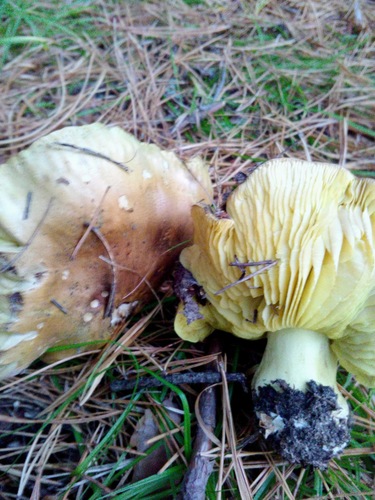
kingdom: Fungi
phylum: Basidiomycota
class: Agaricomycetes
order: Agaricales
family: Tricholomataceae
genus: Tricholoma
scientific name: Tricholoma equestre
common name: Yellow knight
